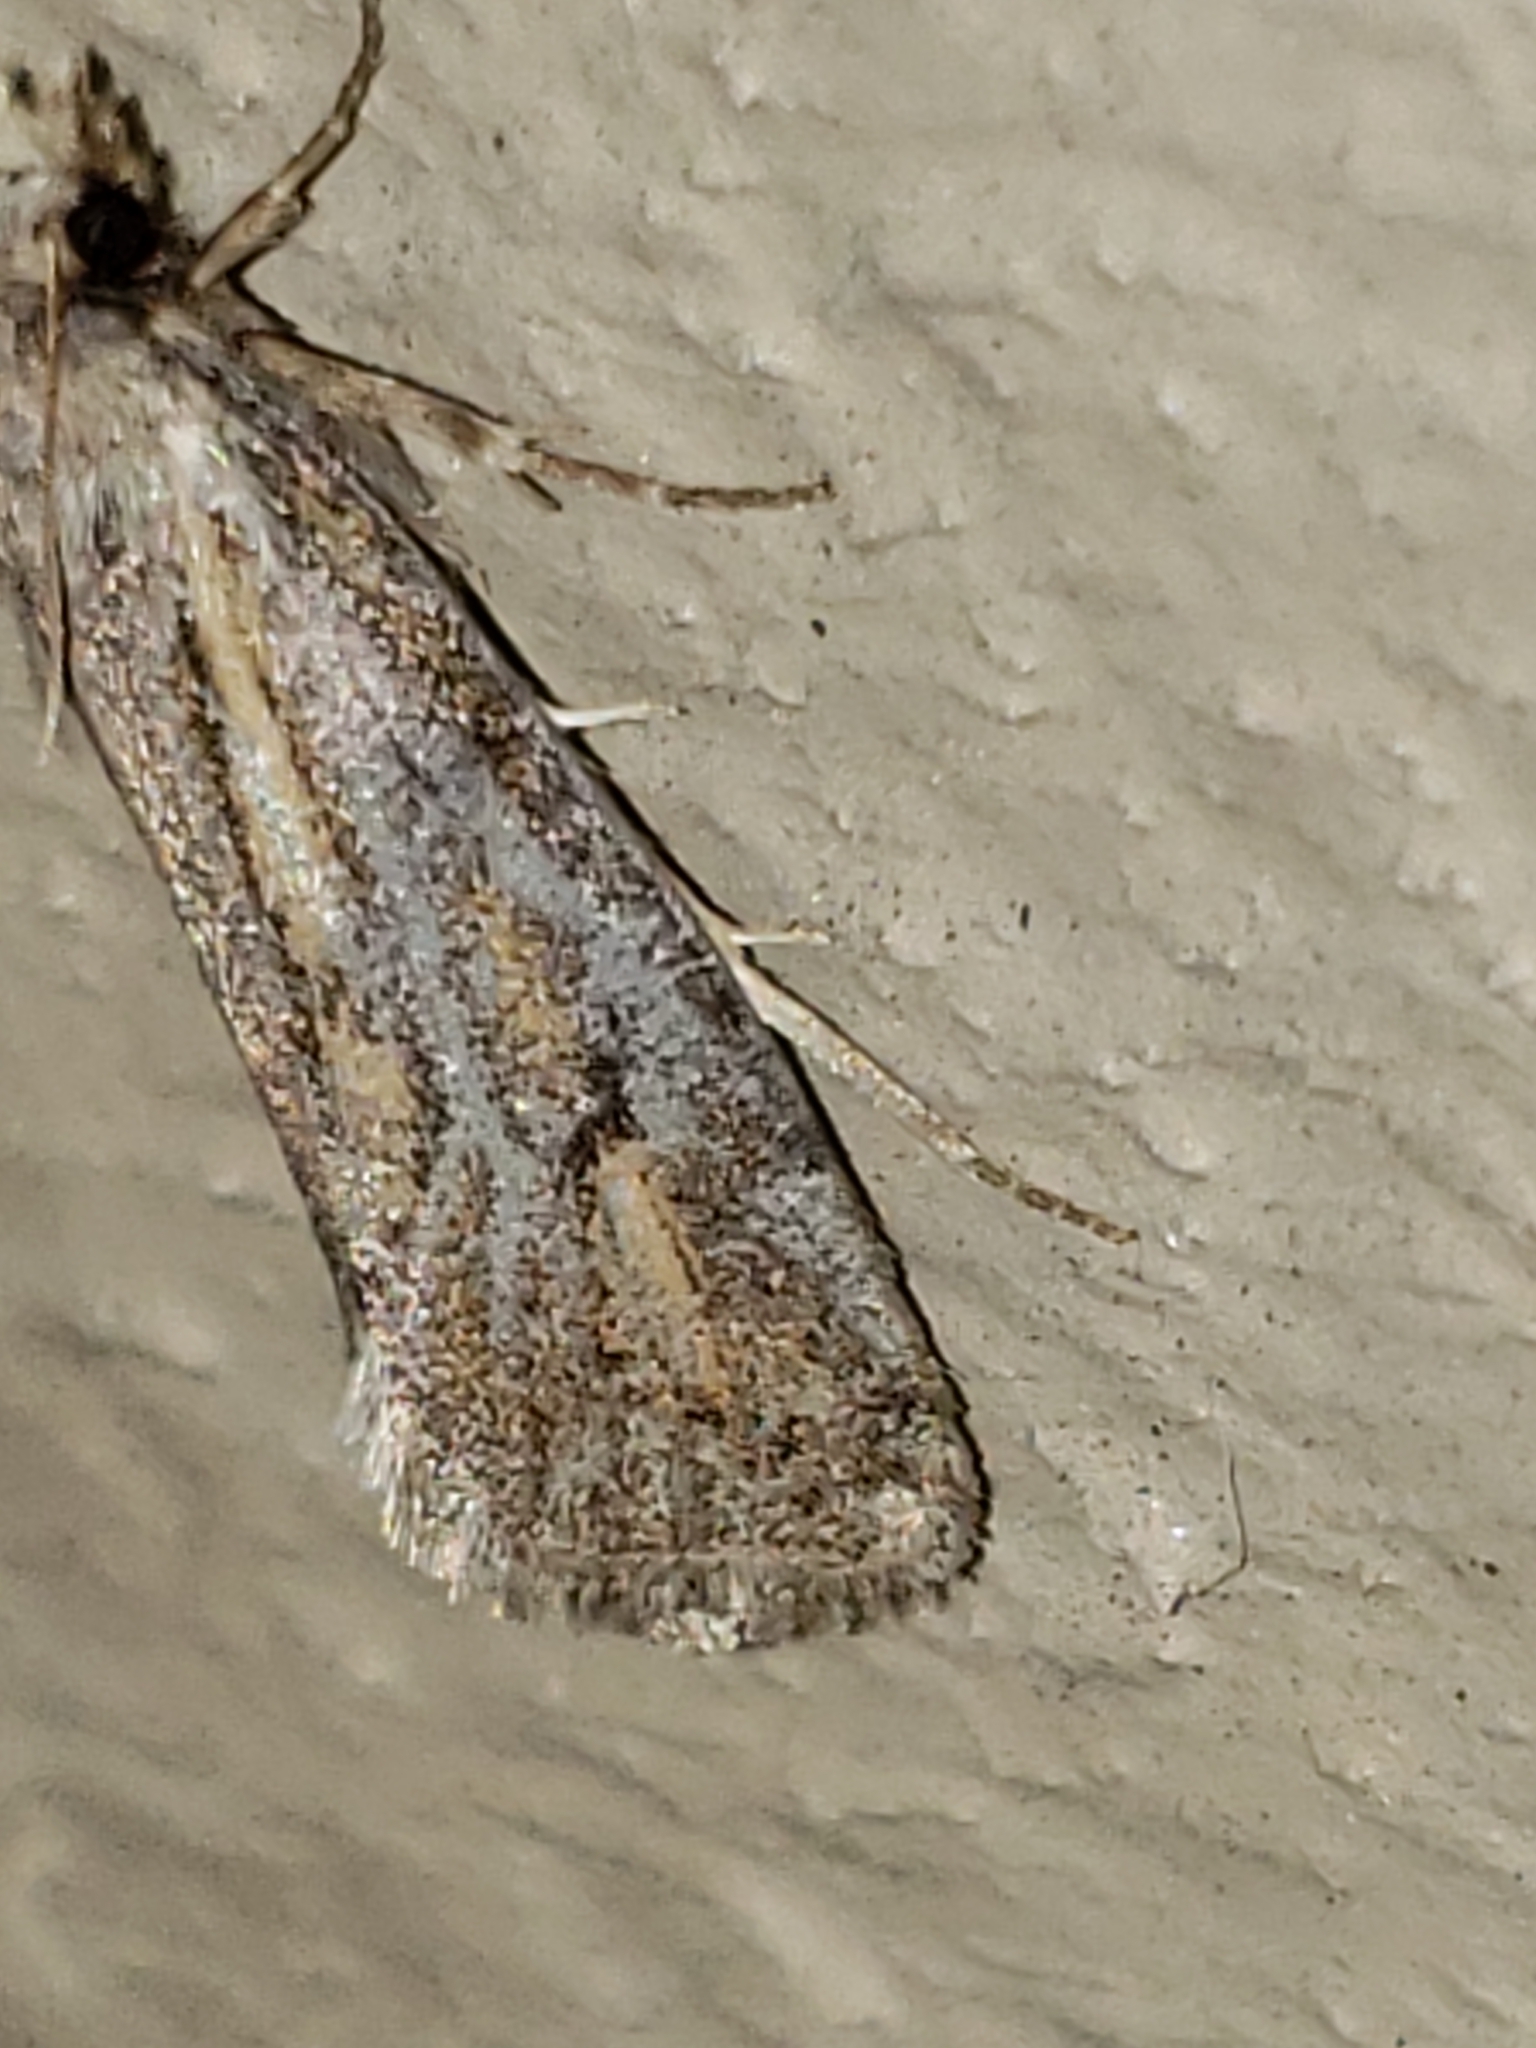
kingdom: Animalia
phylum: Arthropoda
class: Insecta
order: Lepidoptera
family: Tineidae
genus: Acrolophus
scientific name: Acrolophus popeanella
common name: Clemens' grass tubeworm moth
